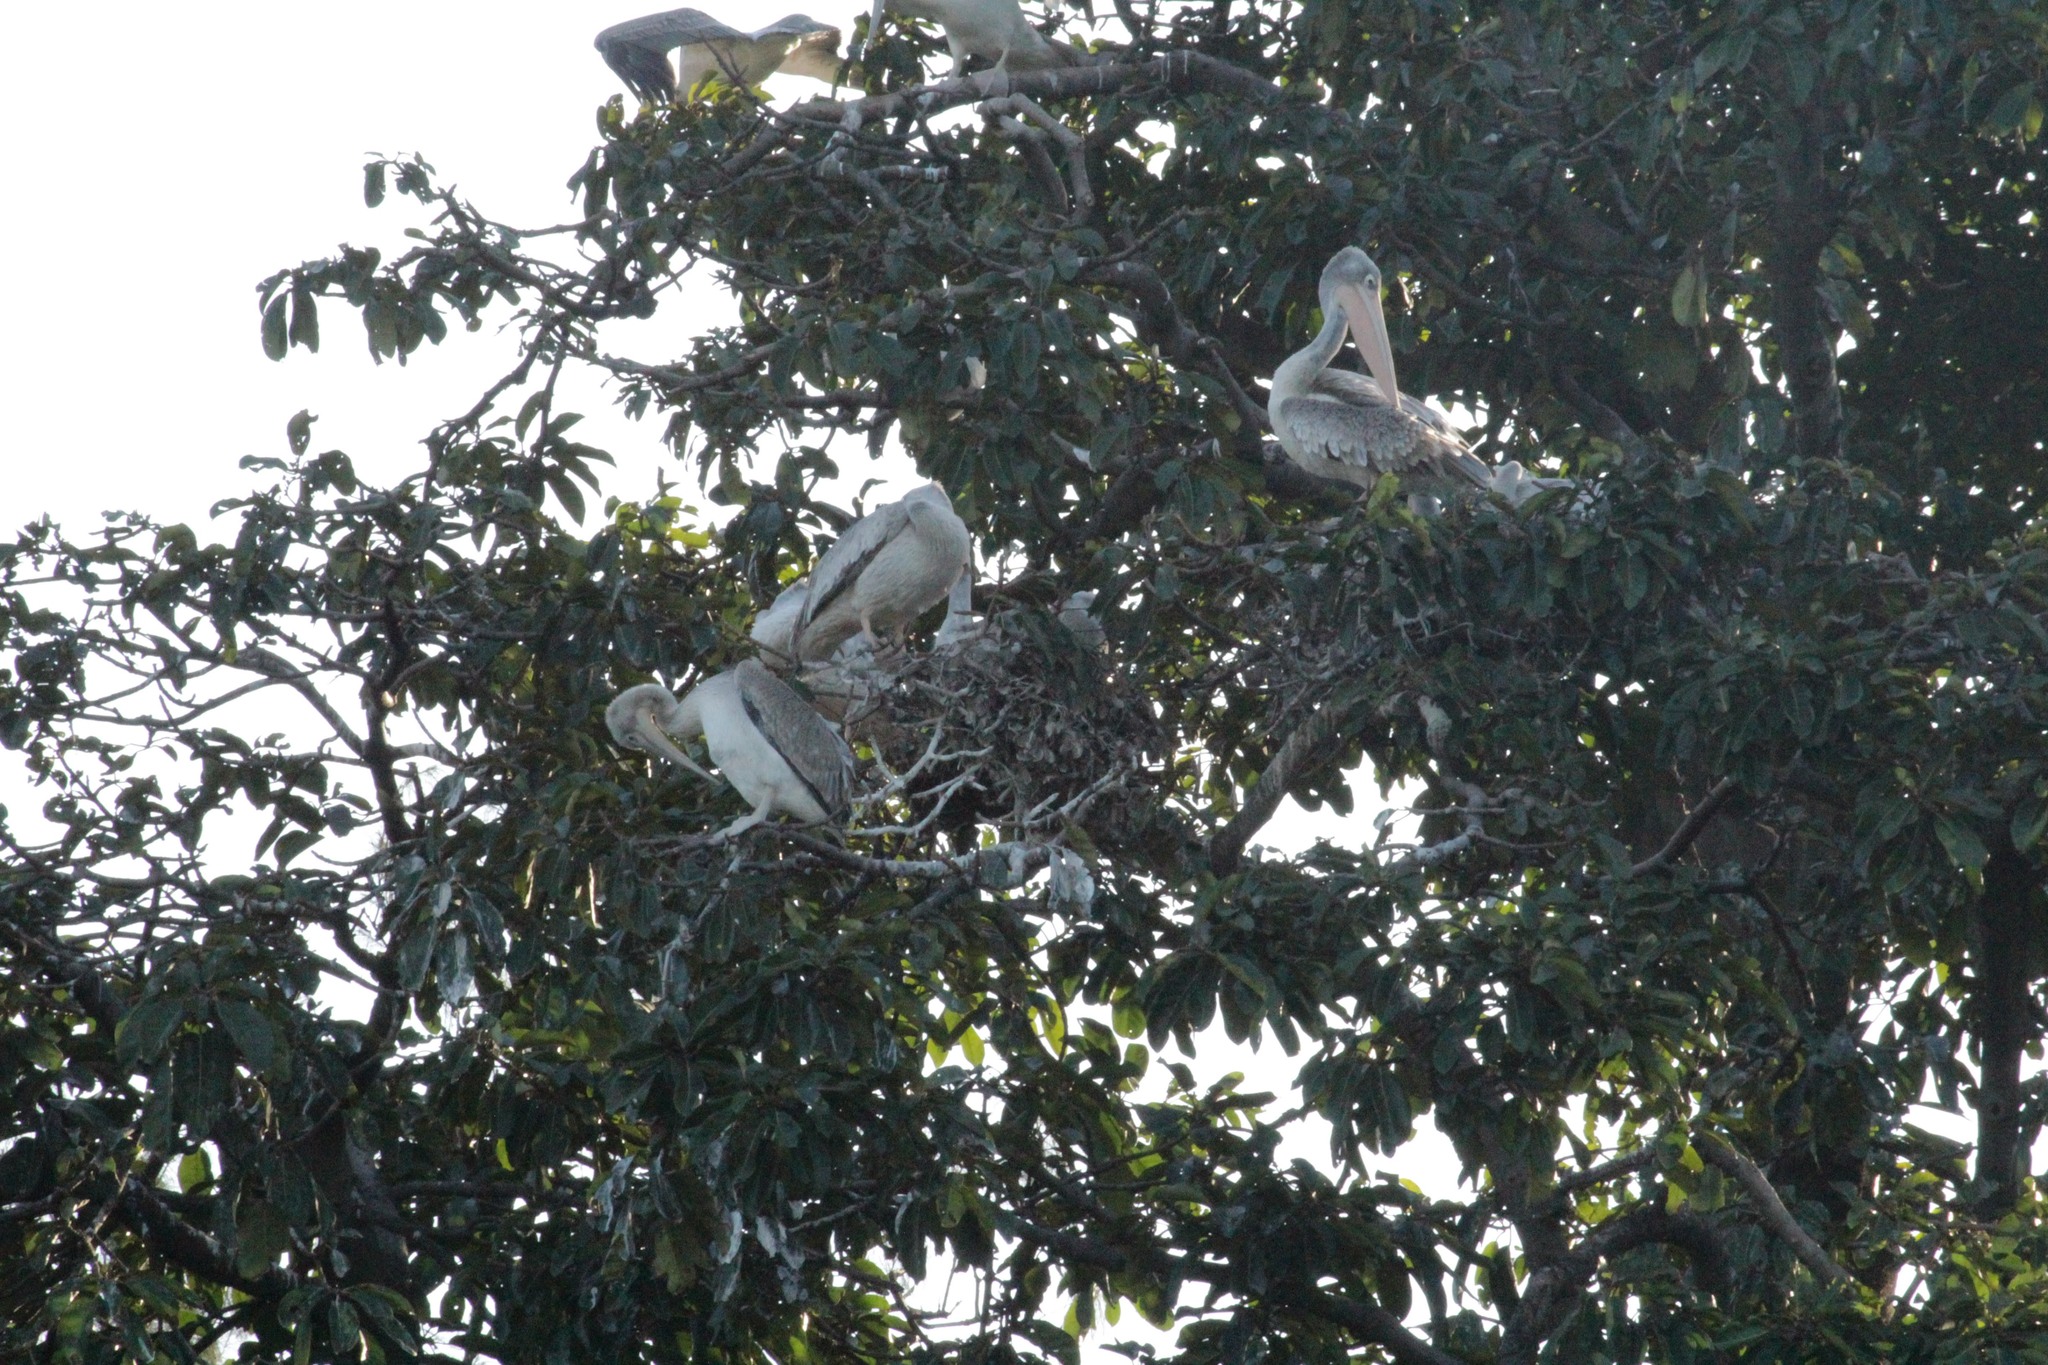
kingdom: Animalia
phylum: Chordata
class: Aves
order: Pelecaniformes
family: Pelecanidae
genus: Pelecanus
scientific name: Pelecanus rufescens
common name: Pink-backed pelican
